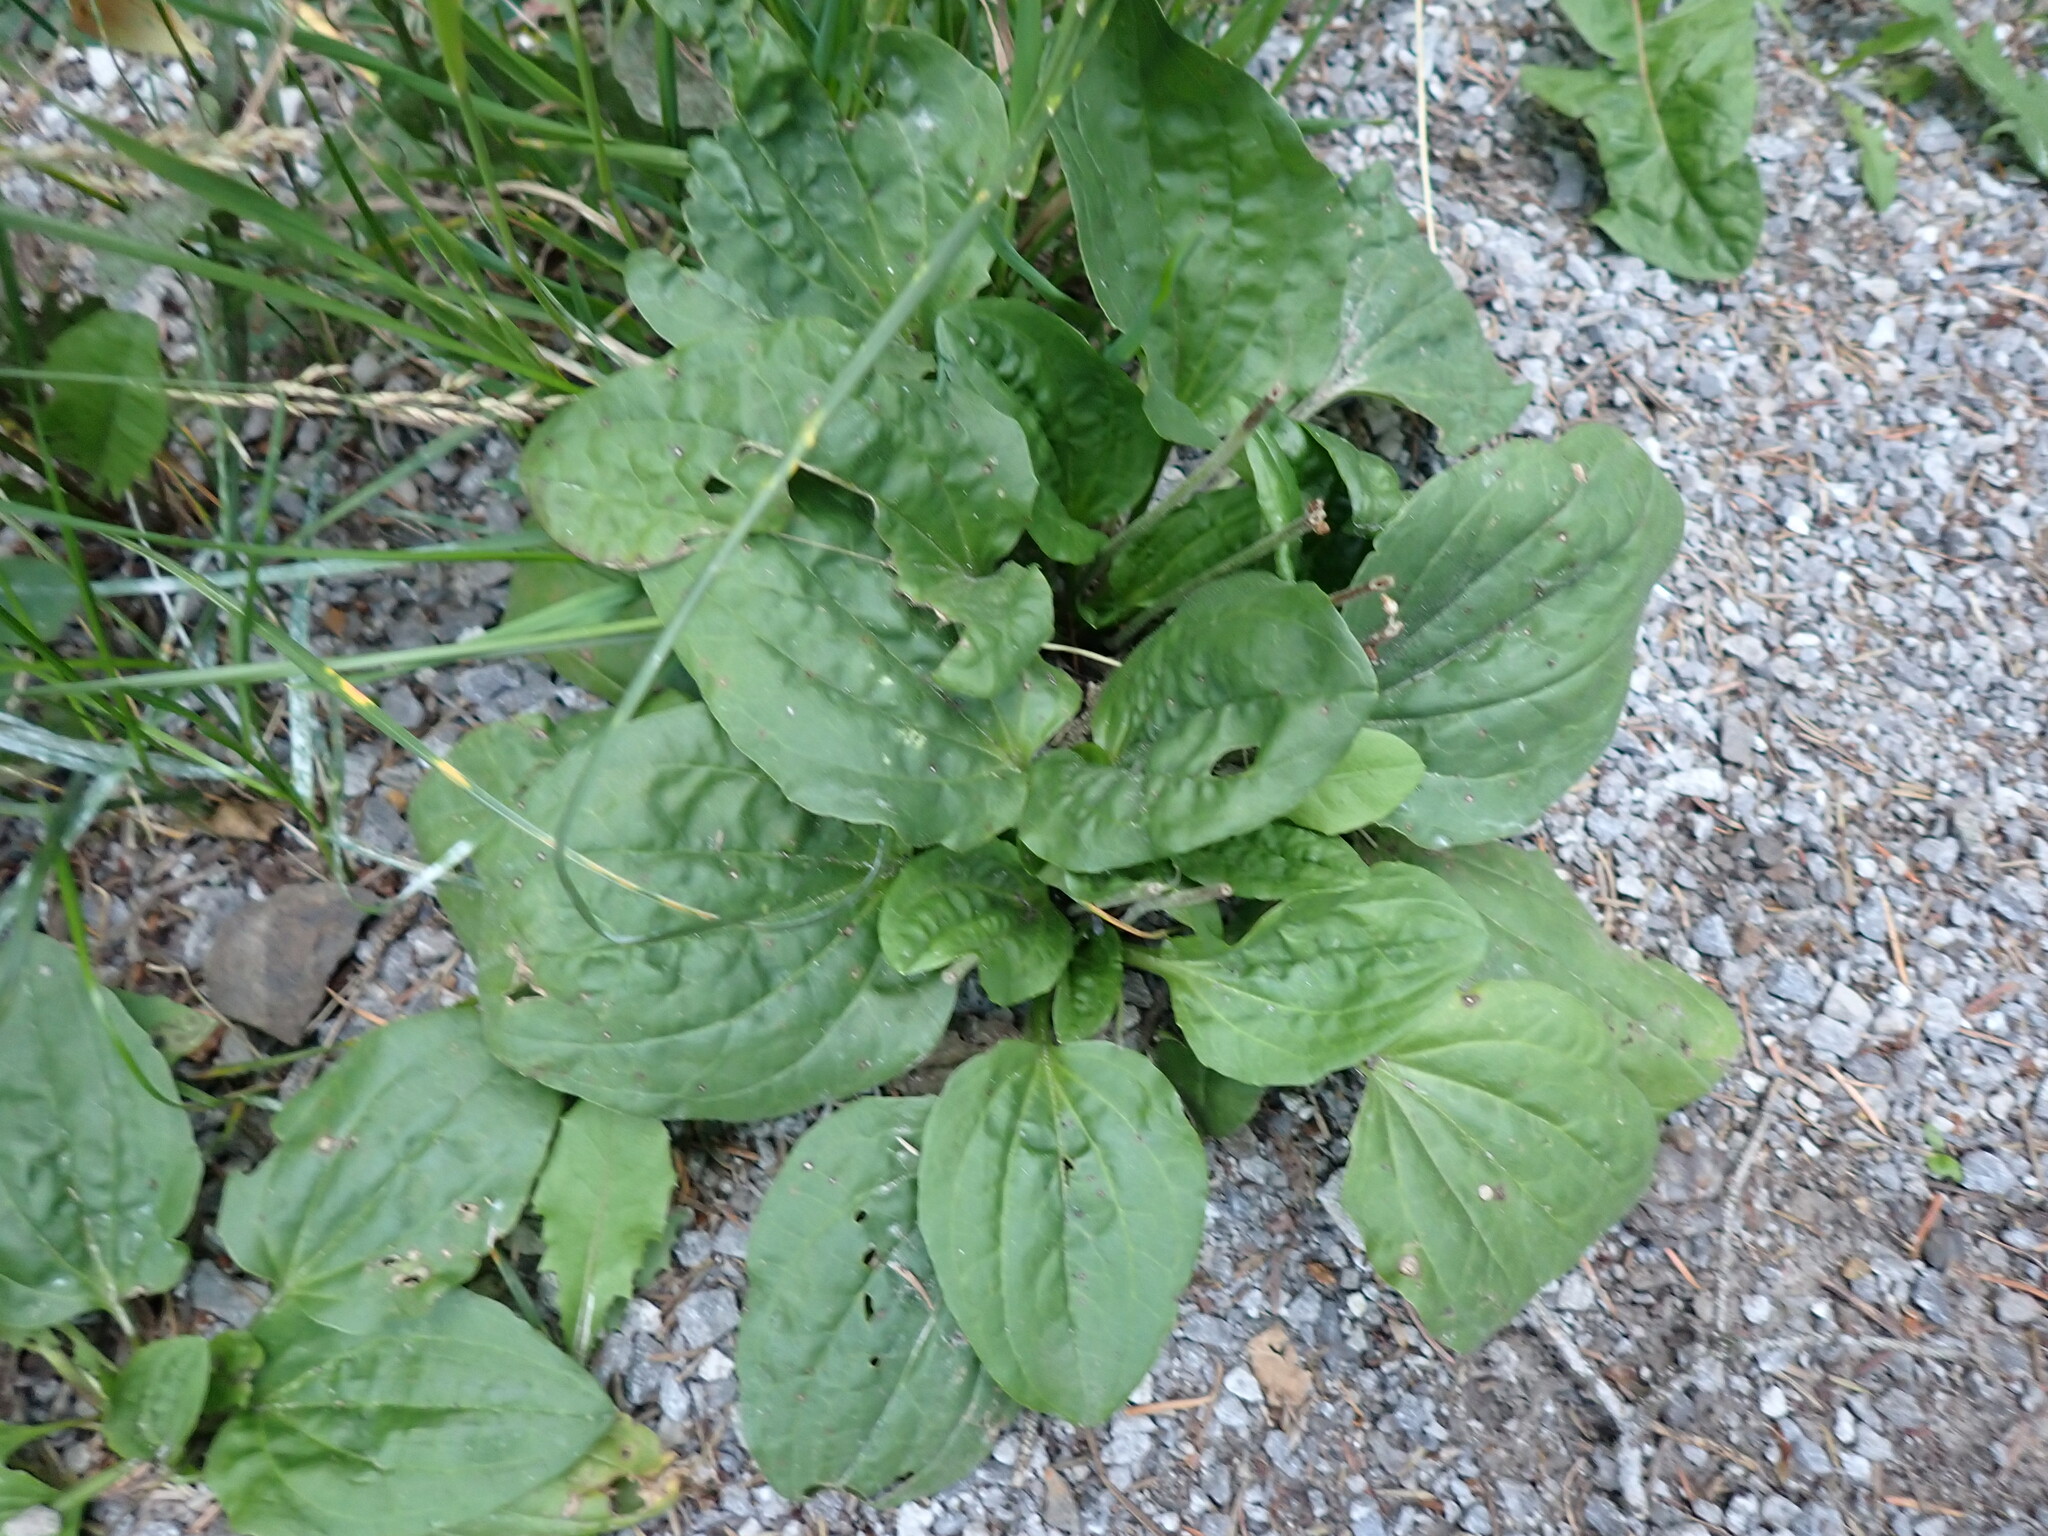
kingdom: Plantae
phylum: Tracheophyta
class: Magnoliopsida
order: Lamiales
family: Plantaginaceae
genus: Plantago
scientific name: Plantago major
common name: Common plantain
